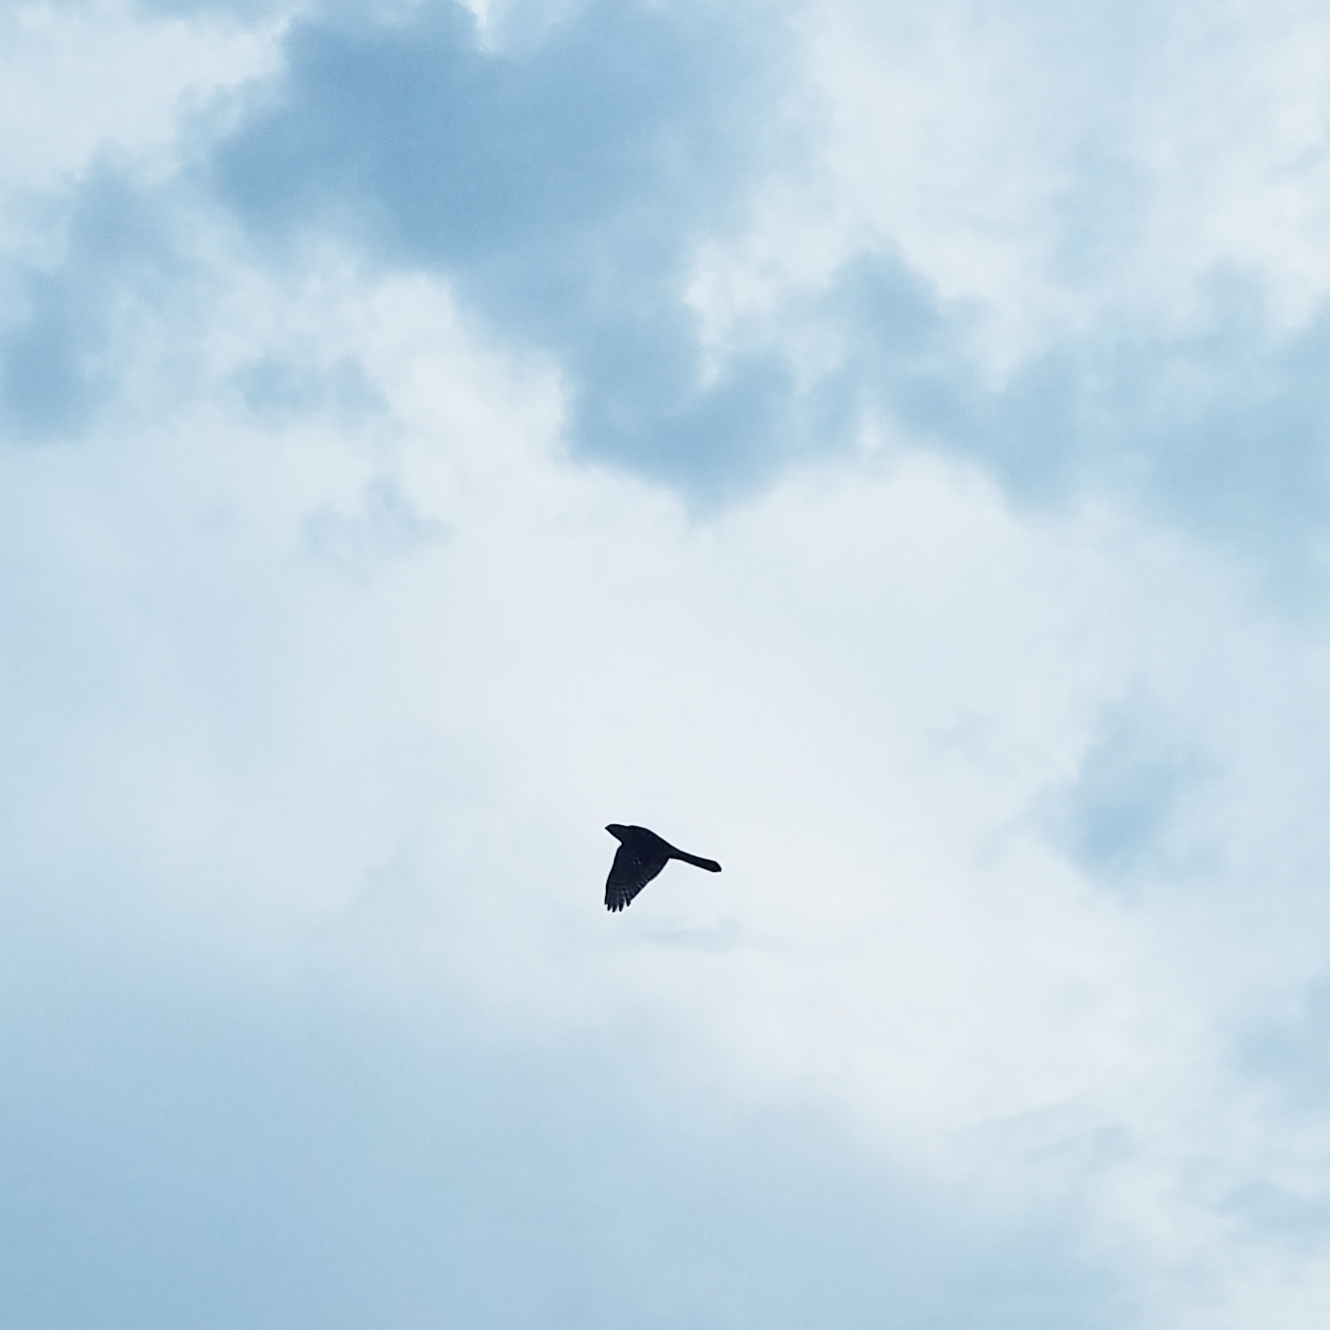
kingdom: Animalia
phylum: Chordata
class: Aves
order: Accipitriformes
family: Accipitridae
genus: Accipiter
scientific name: Accipiter cooperii
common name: Cooper's hawk
